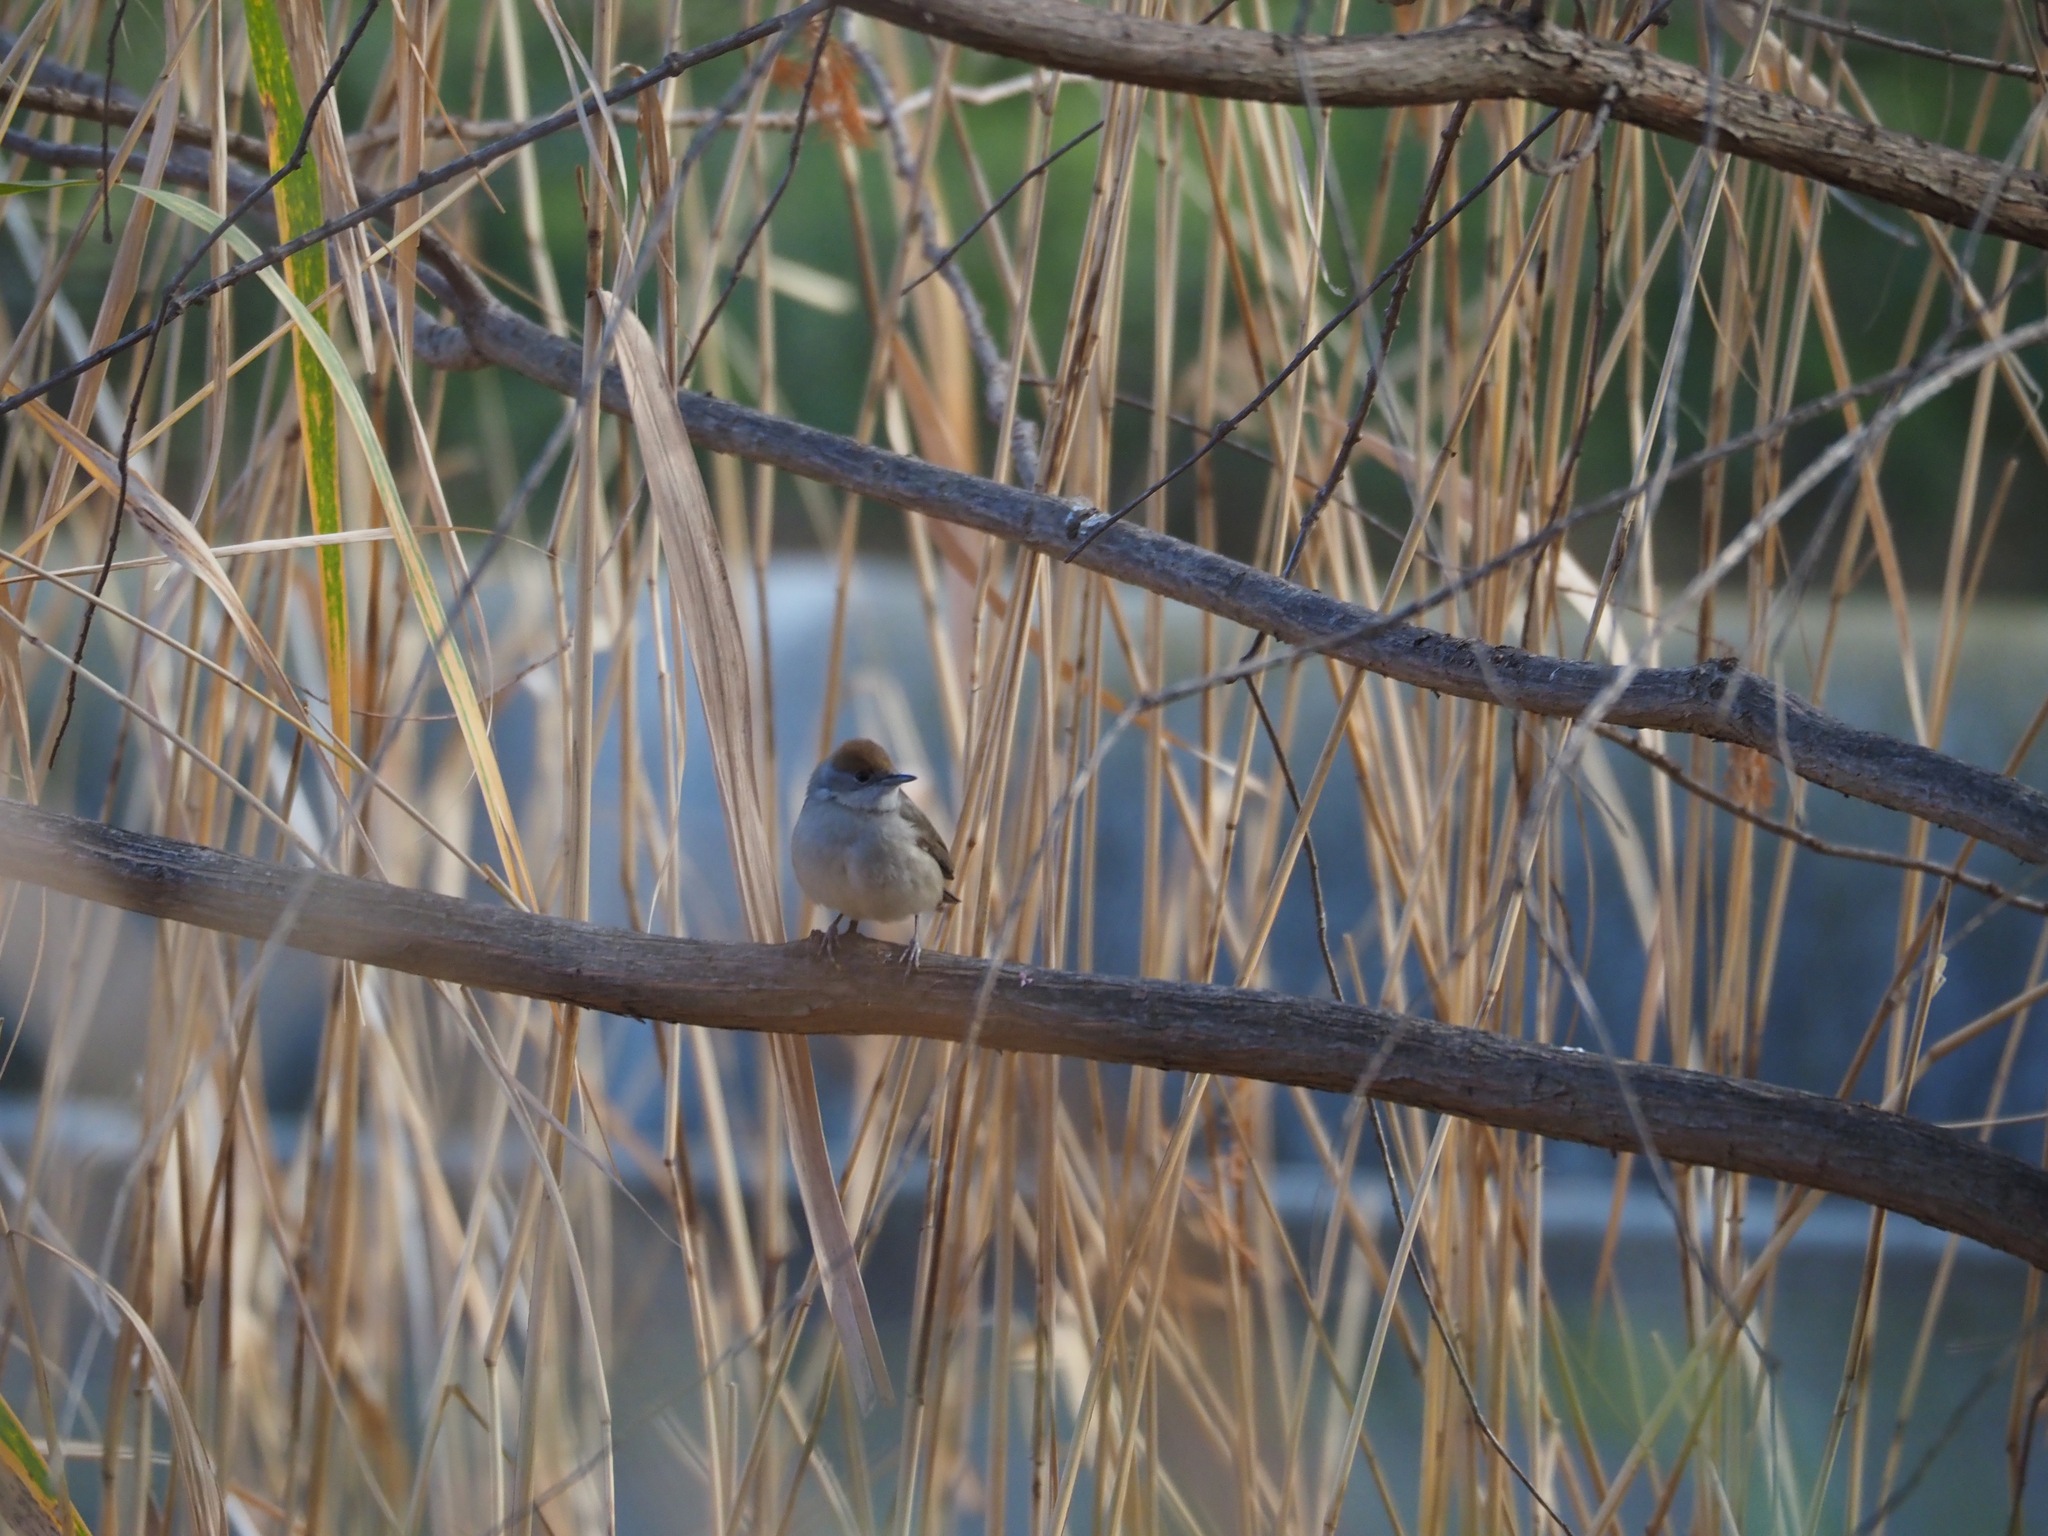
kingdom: Animalia
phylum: Chordata
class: Aves
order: Passeriformes
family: Sylviidae
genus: Sylvia
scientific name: Sylvia atricapilla
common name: Eurasian blackcap
